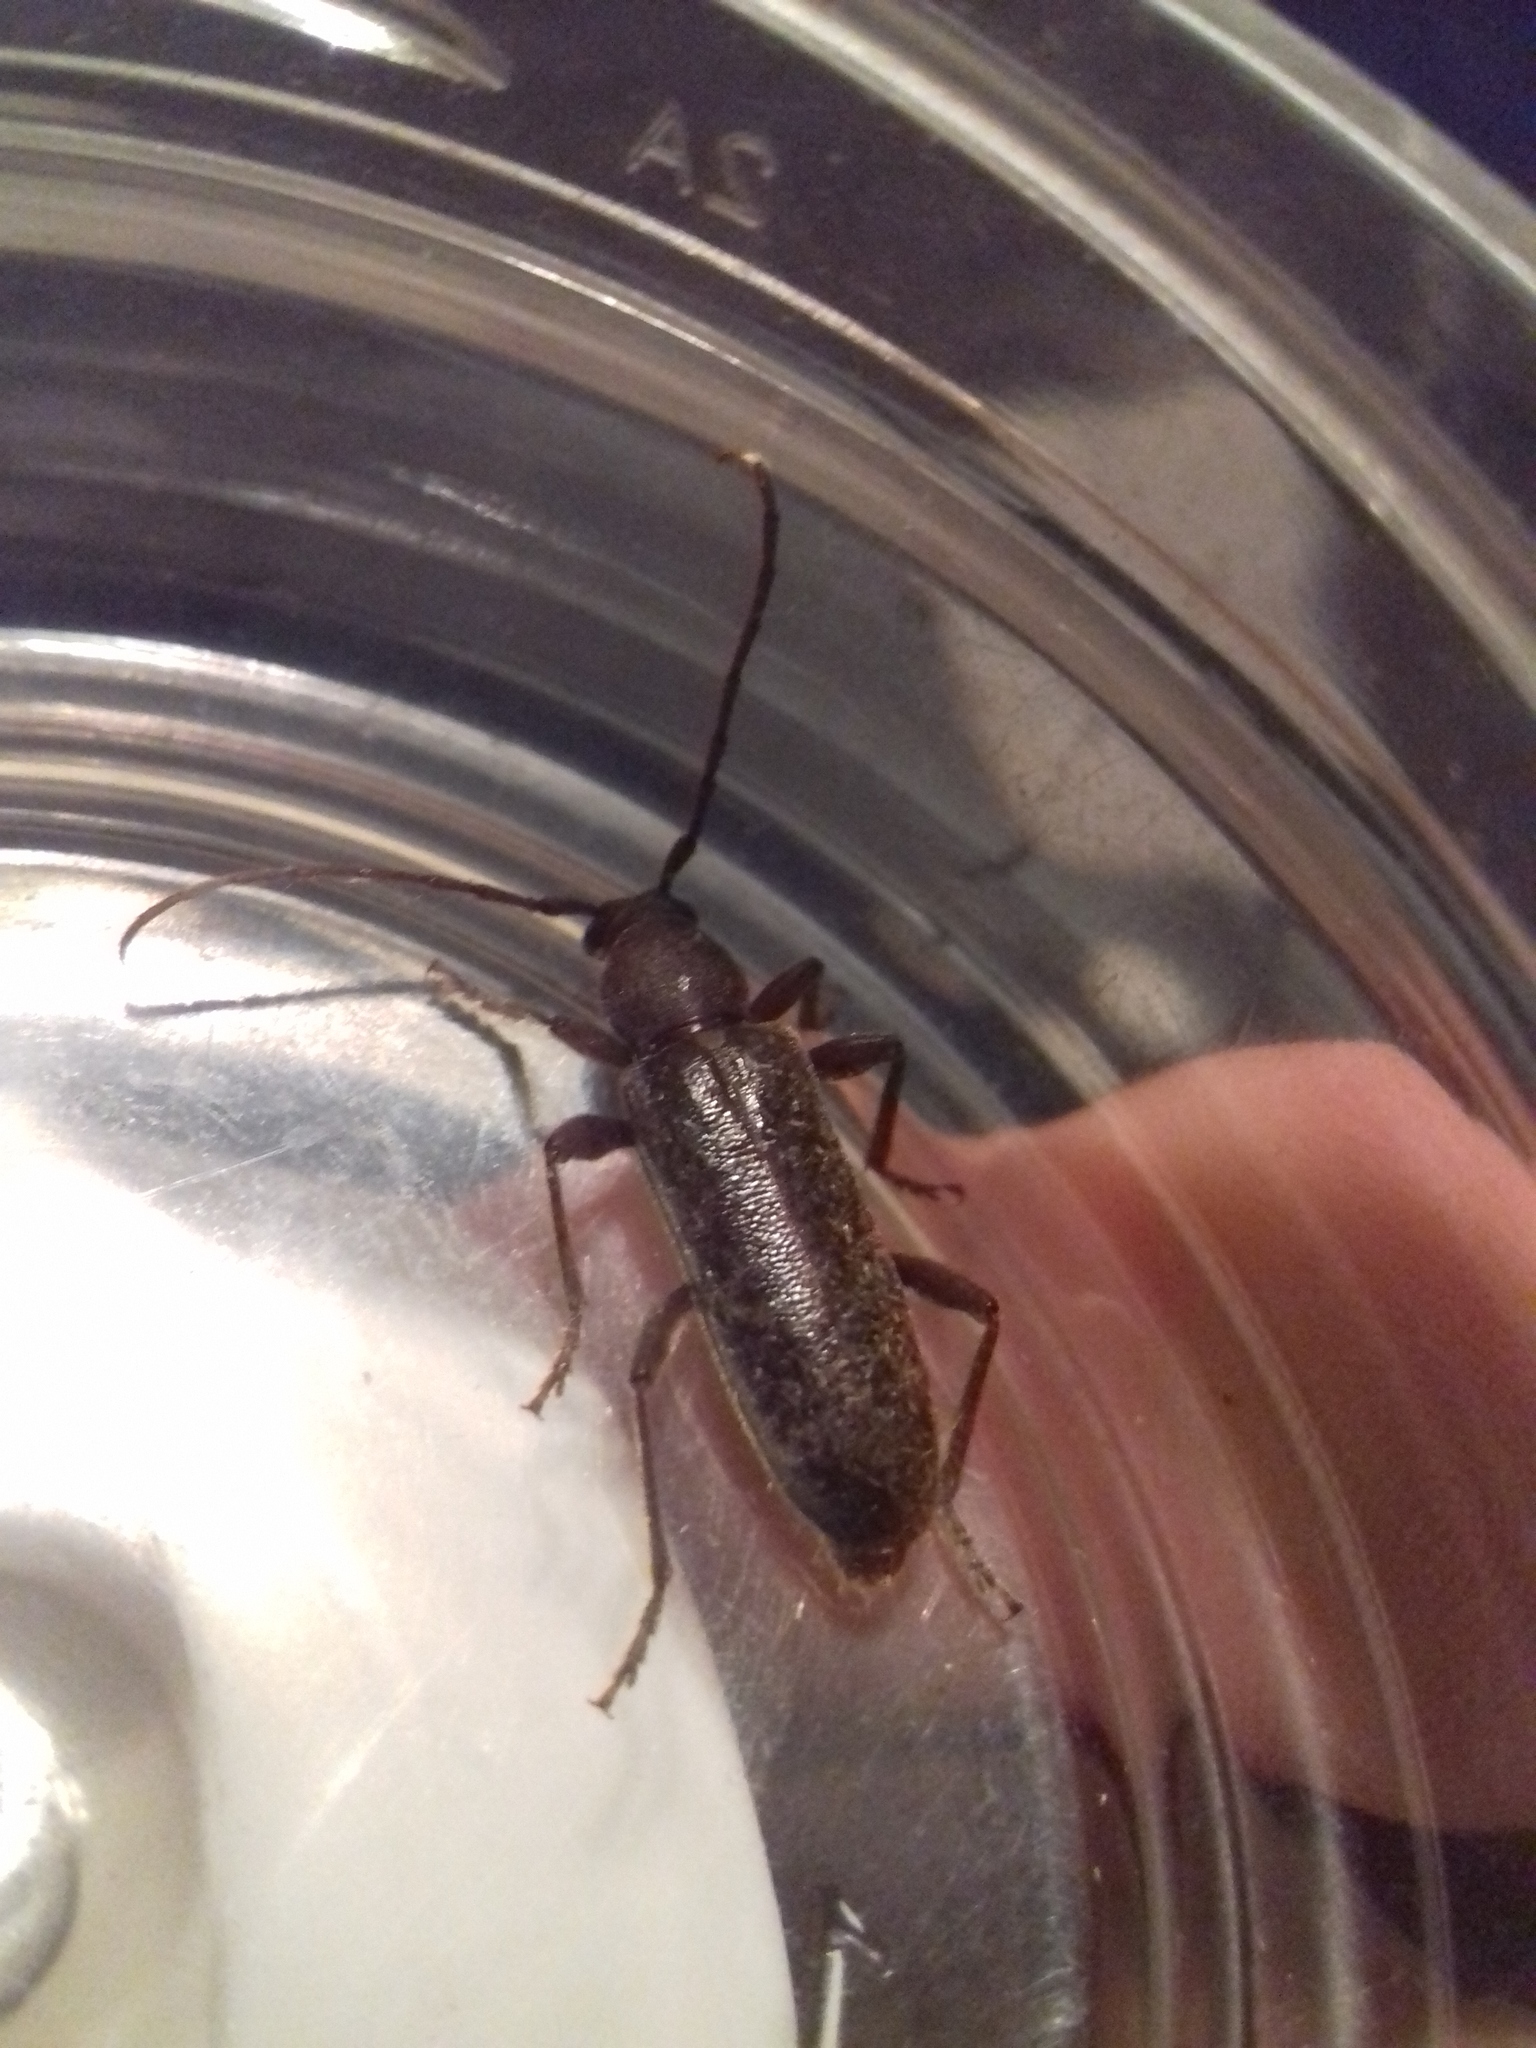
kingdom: Animalia
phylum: Arthropoda
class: Insecta
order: Coleoptera
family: Cerambycidae
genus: Trichoferus
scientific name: Trichoferus campestris
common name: Velvet long horned beetle
